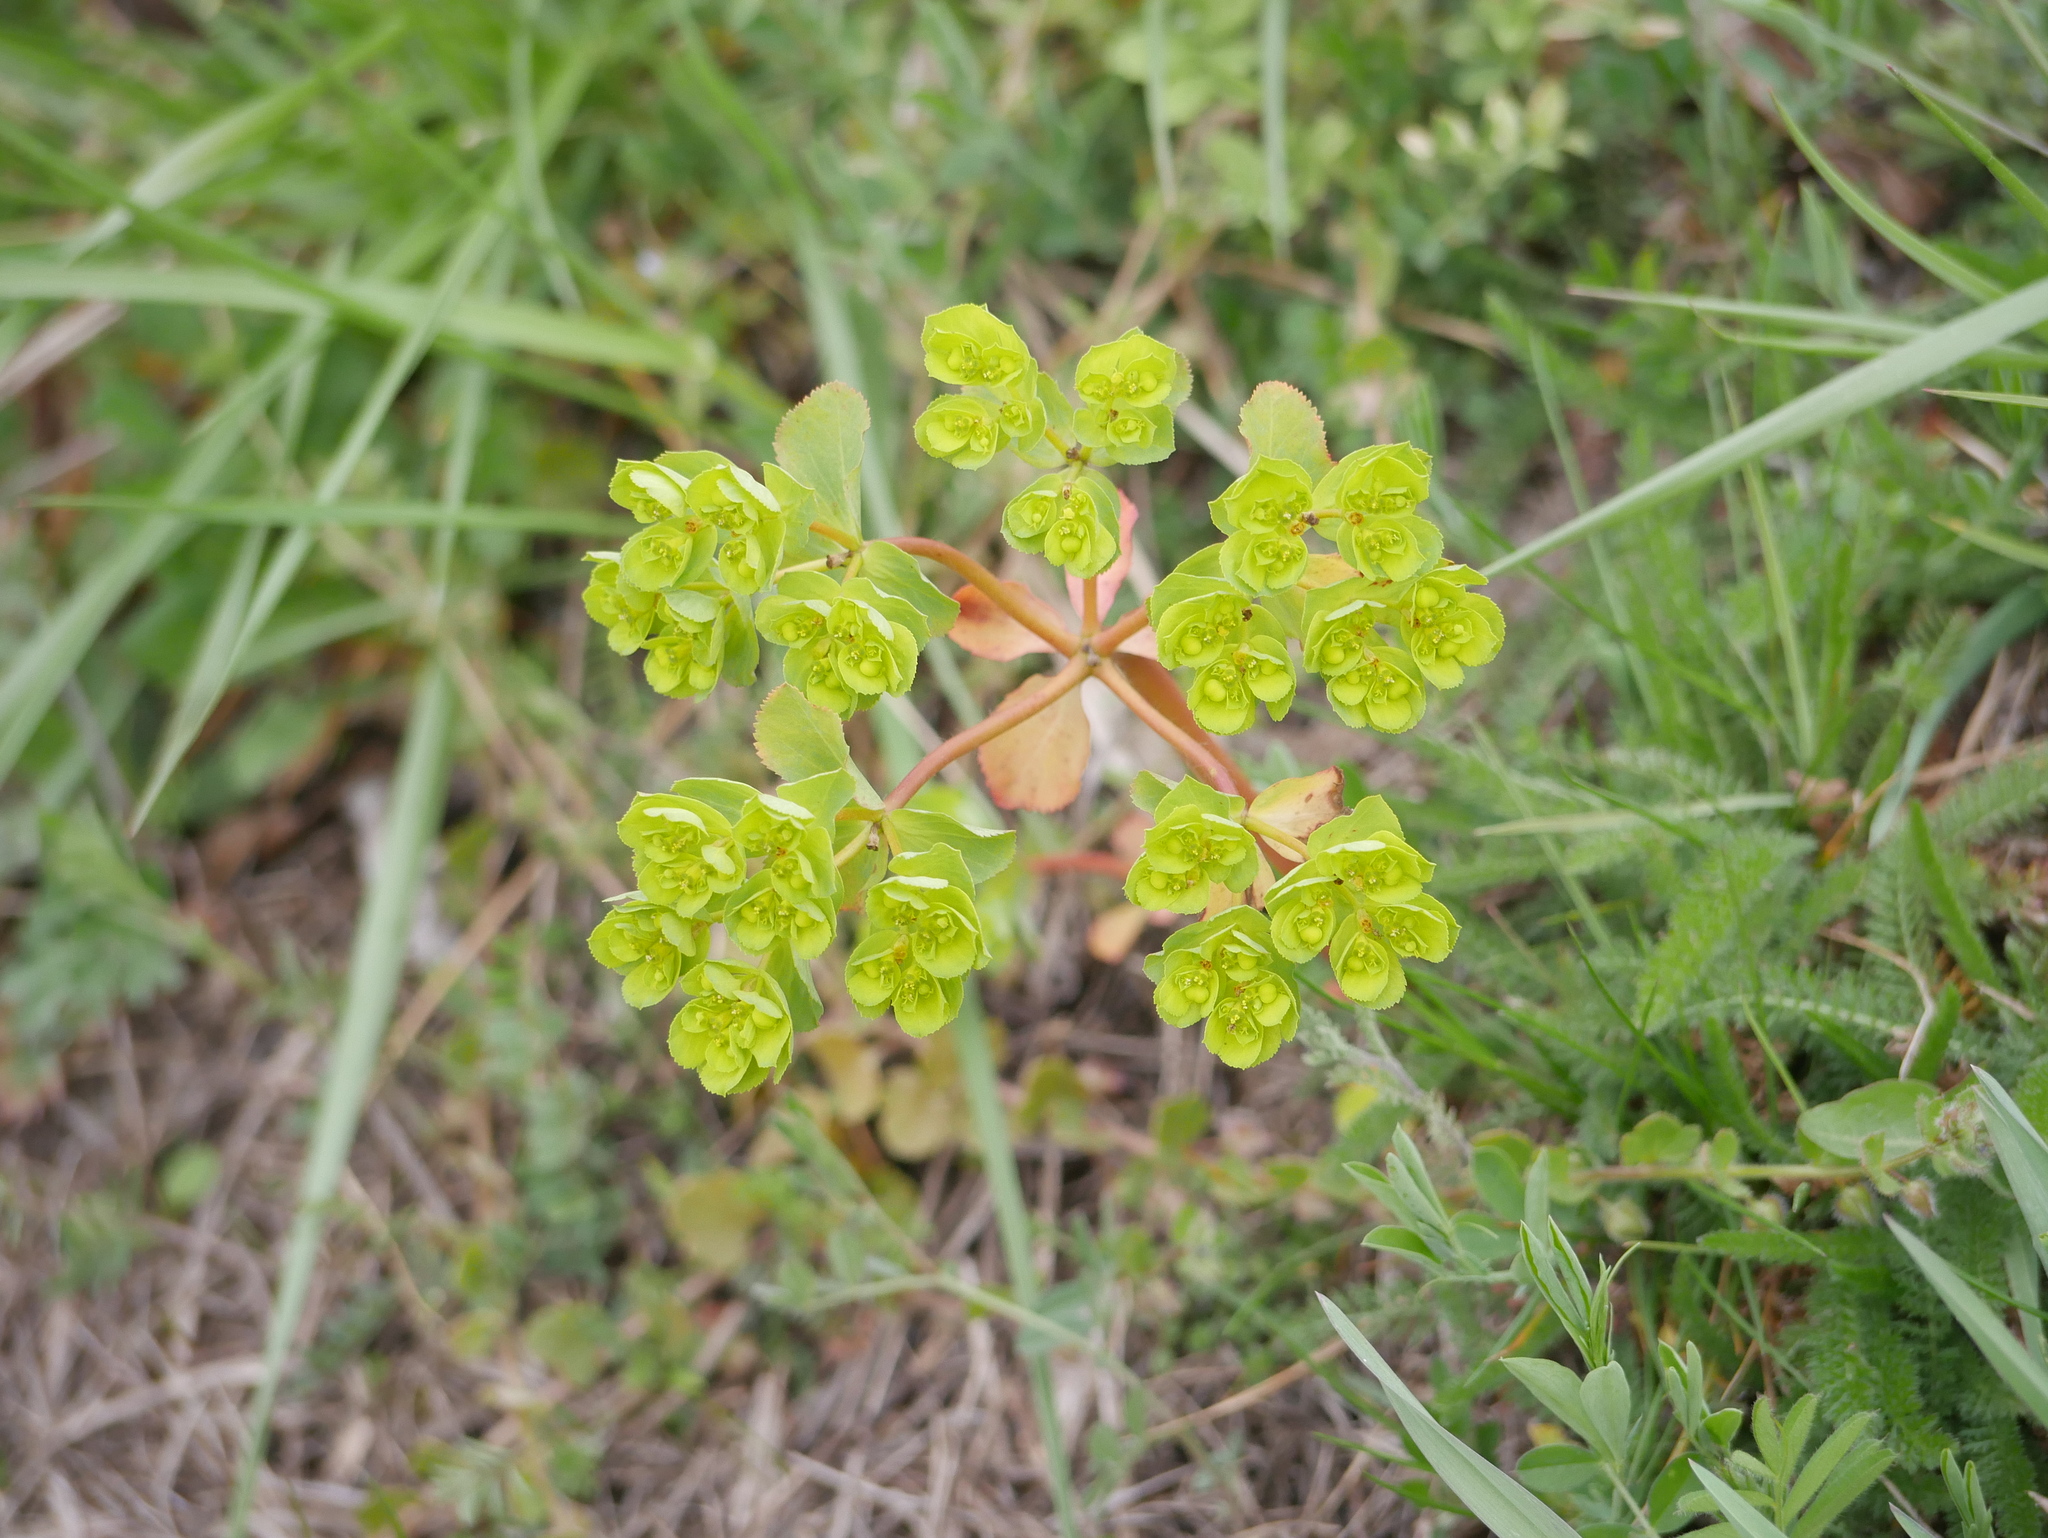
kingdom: Plantae
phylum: Tracheophyta
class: Magnoliopsida
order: Malpighiales
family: Euphorbiaceae
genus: Euphorbia
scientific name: Euphorbia helioscopia
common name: Sun spurge
